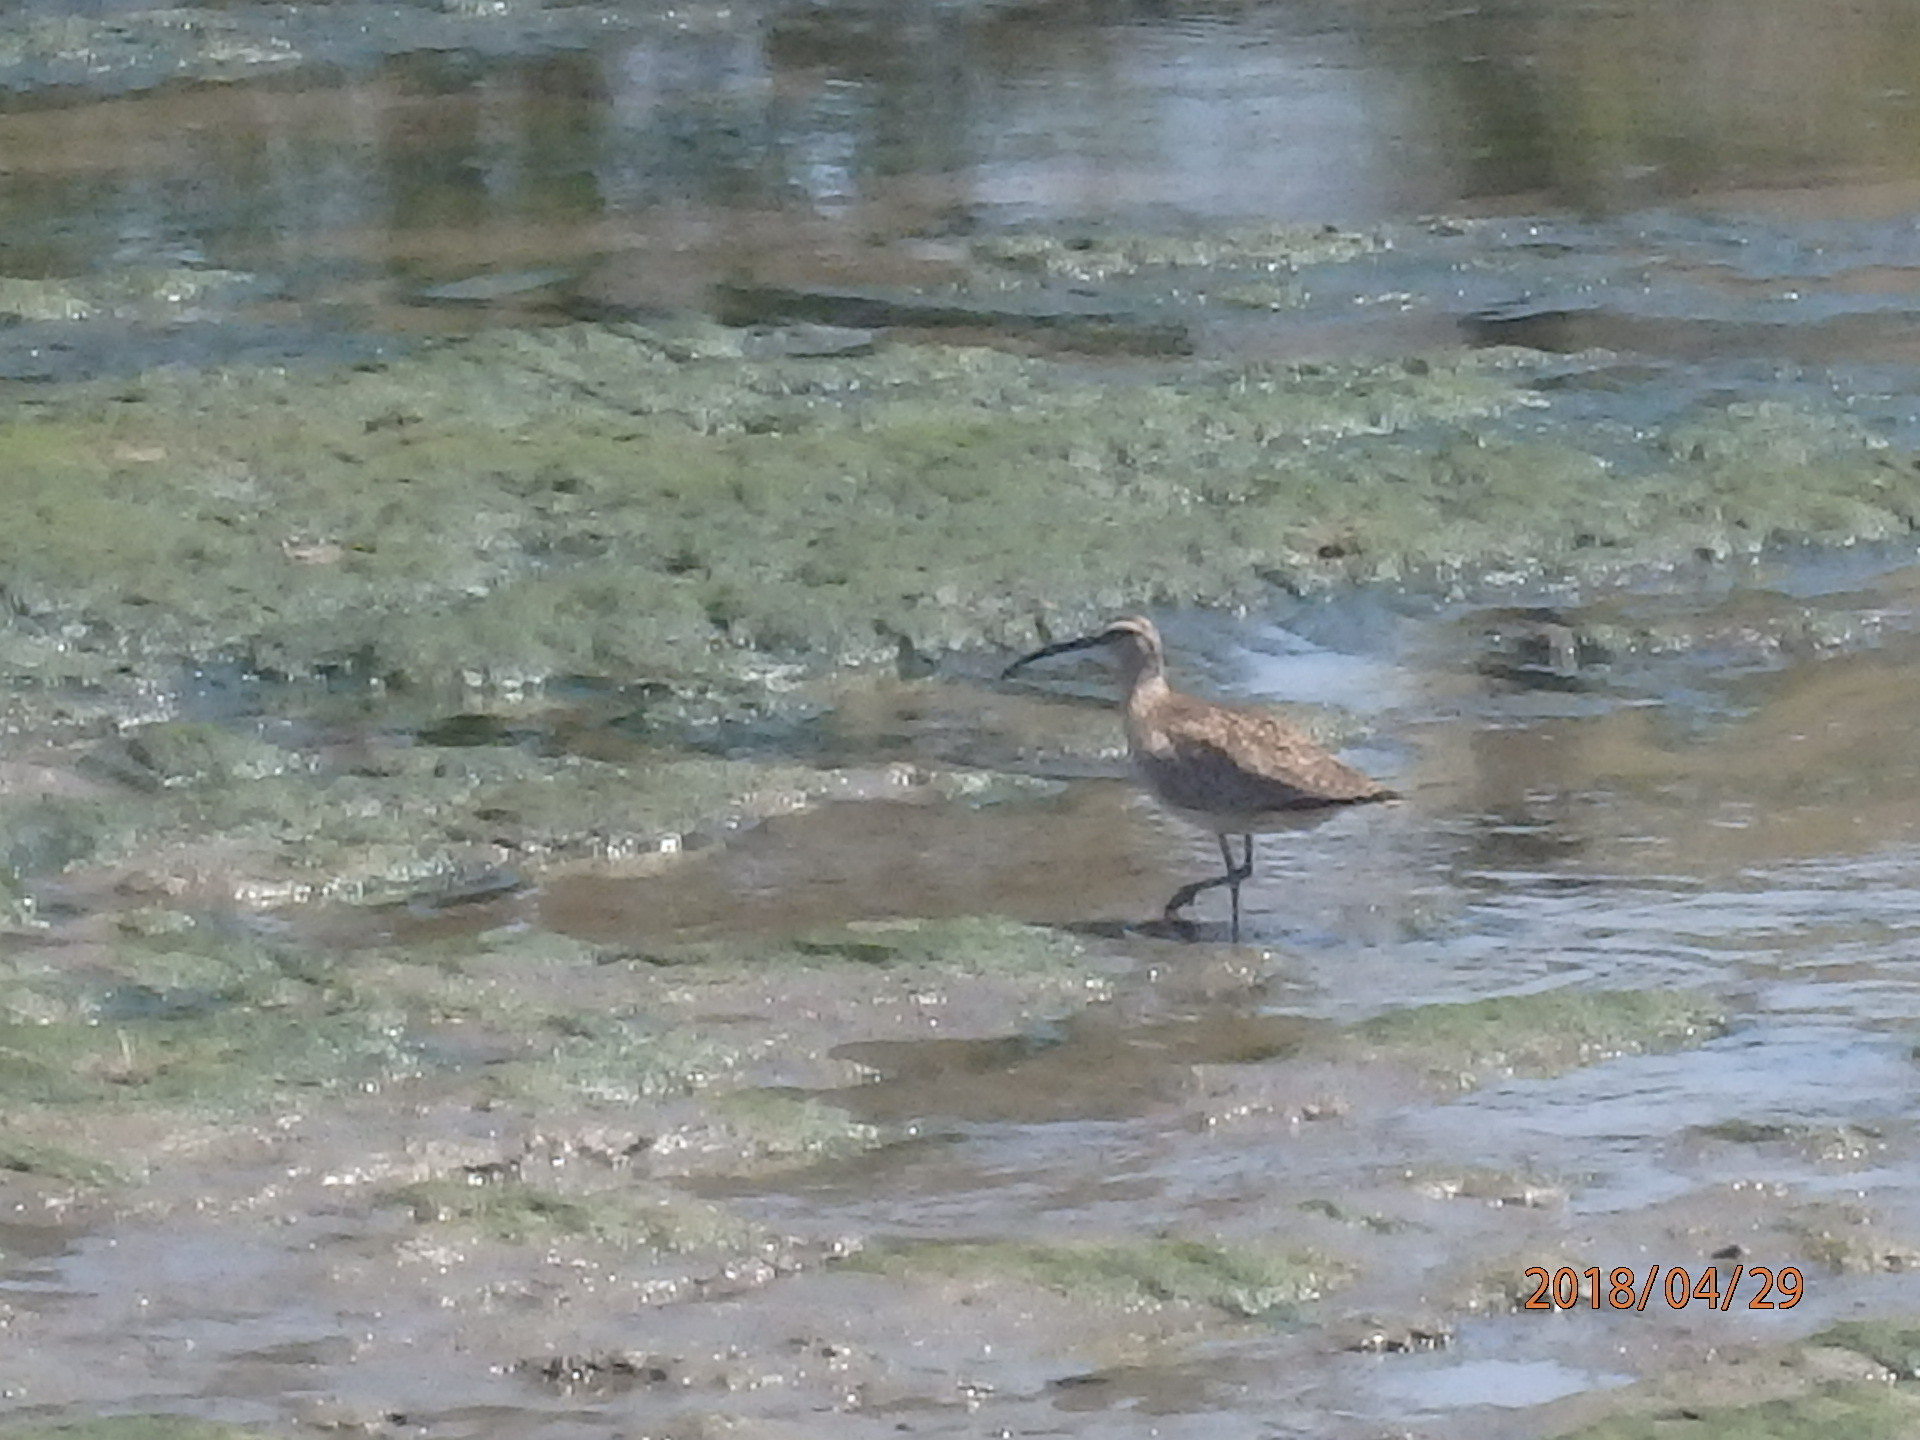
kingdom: Animalia
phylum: Chordata
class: Aves
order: Charadriiformes
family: Scolopacidae
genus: Numenius
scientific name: Numenius phaeopus
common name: Whimbrel
